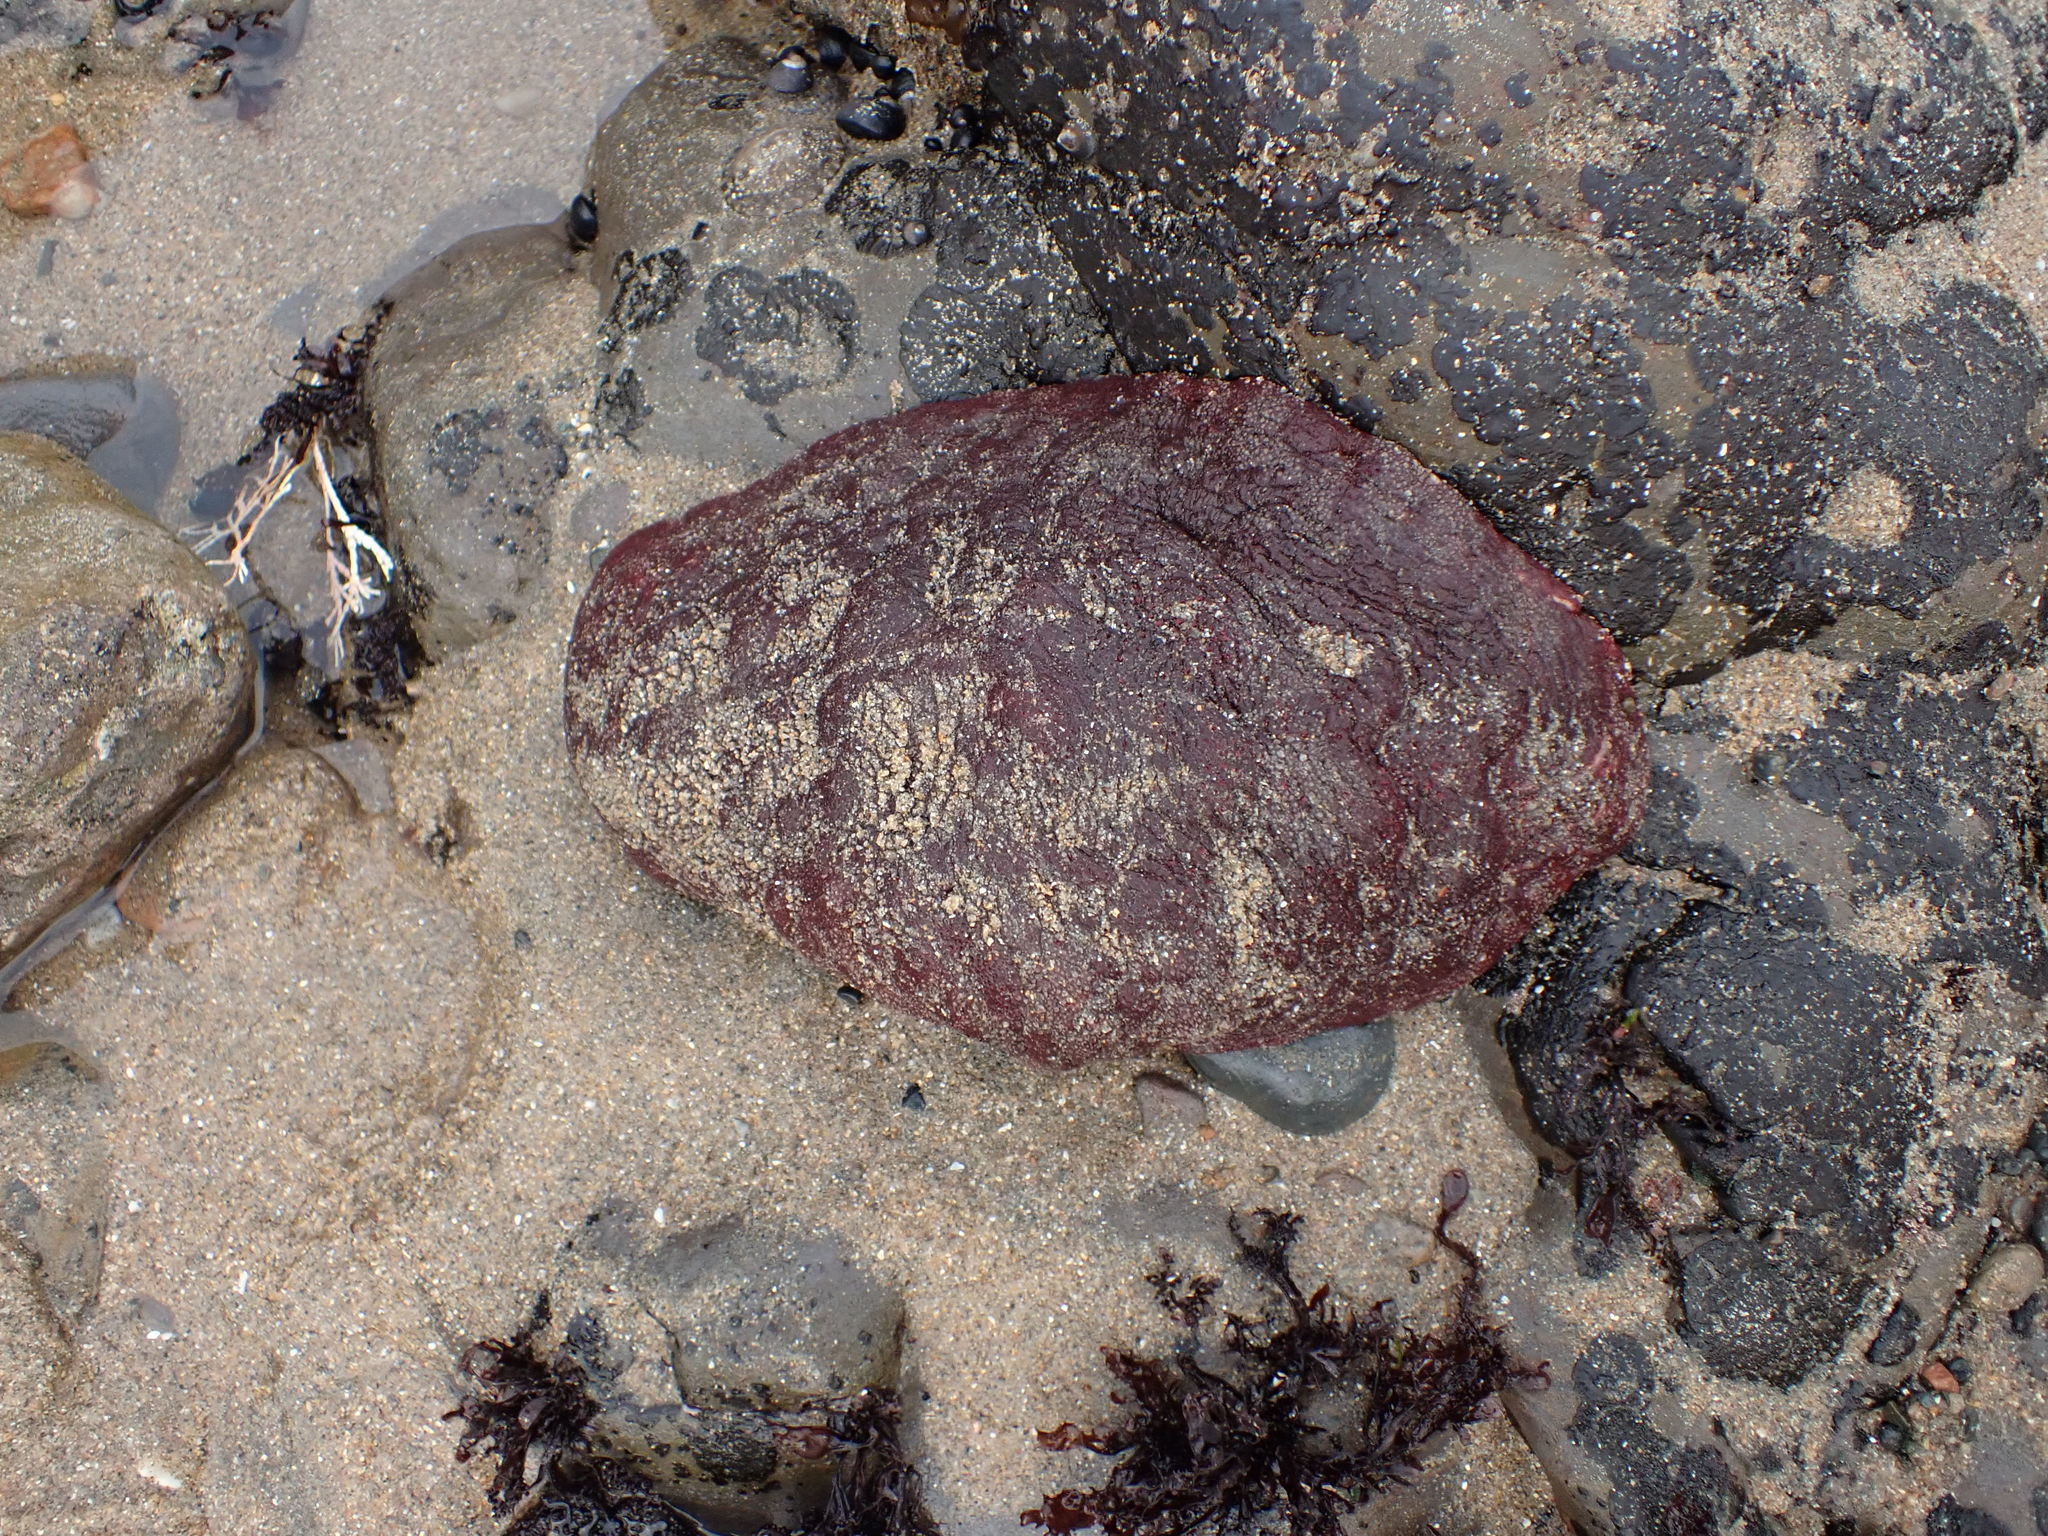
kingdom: Animalia
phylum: Mollusca
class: Polyplacophora
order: Chitonida
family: Acanthochitonidae
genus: Cryptochiton
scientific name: Cryptochiton stelleri
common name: Giant pacific chiton
